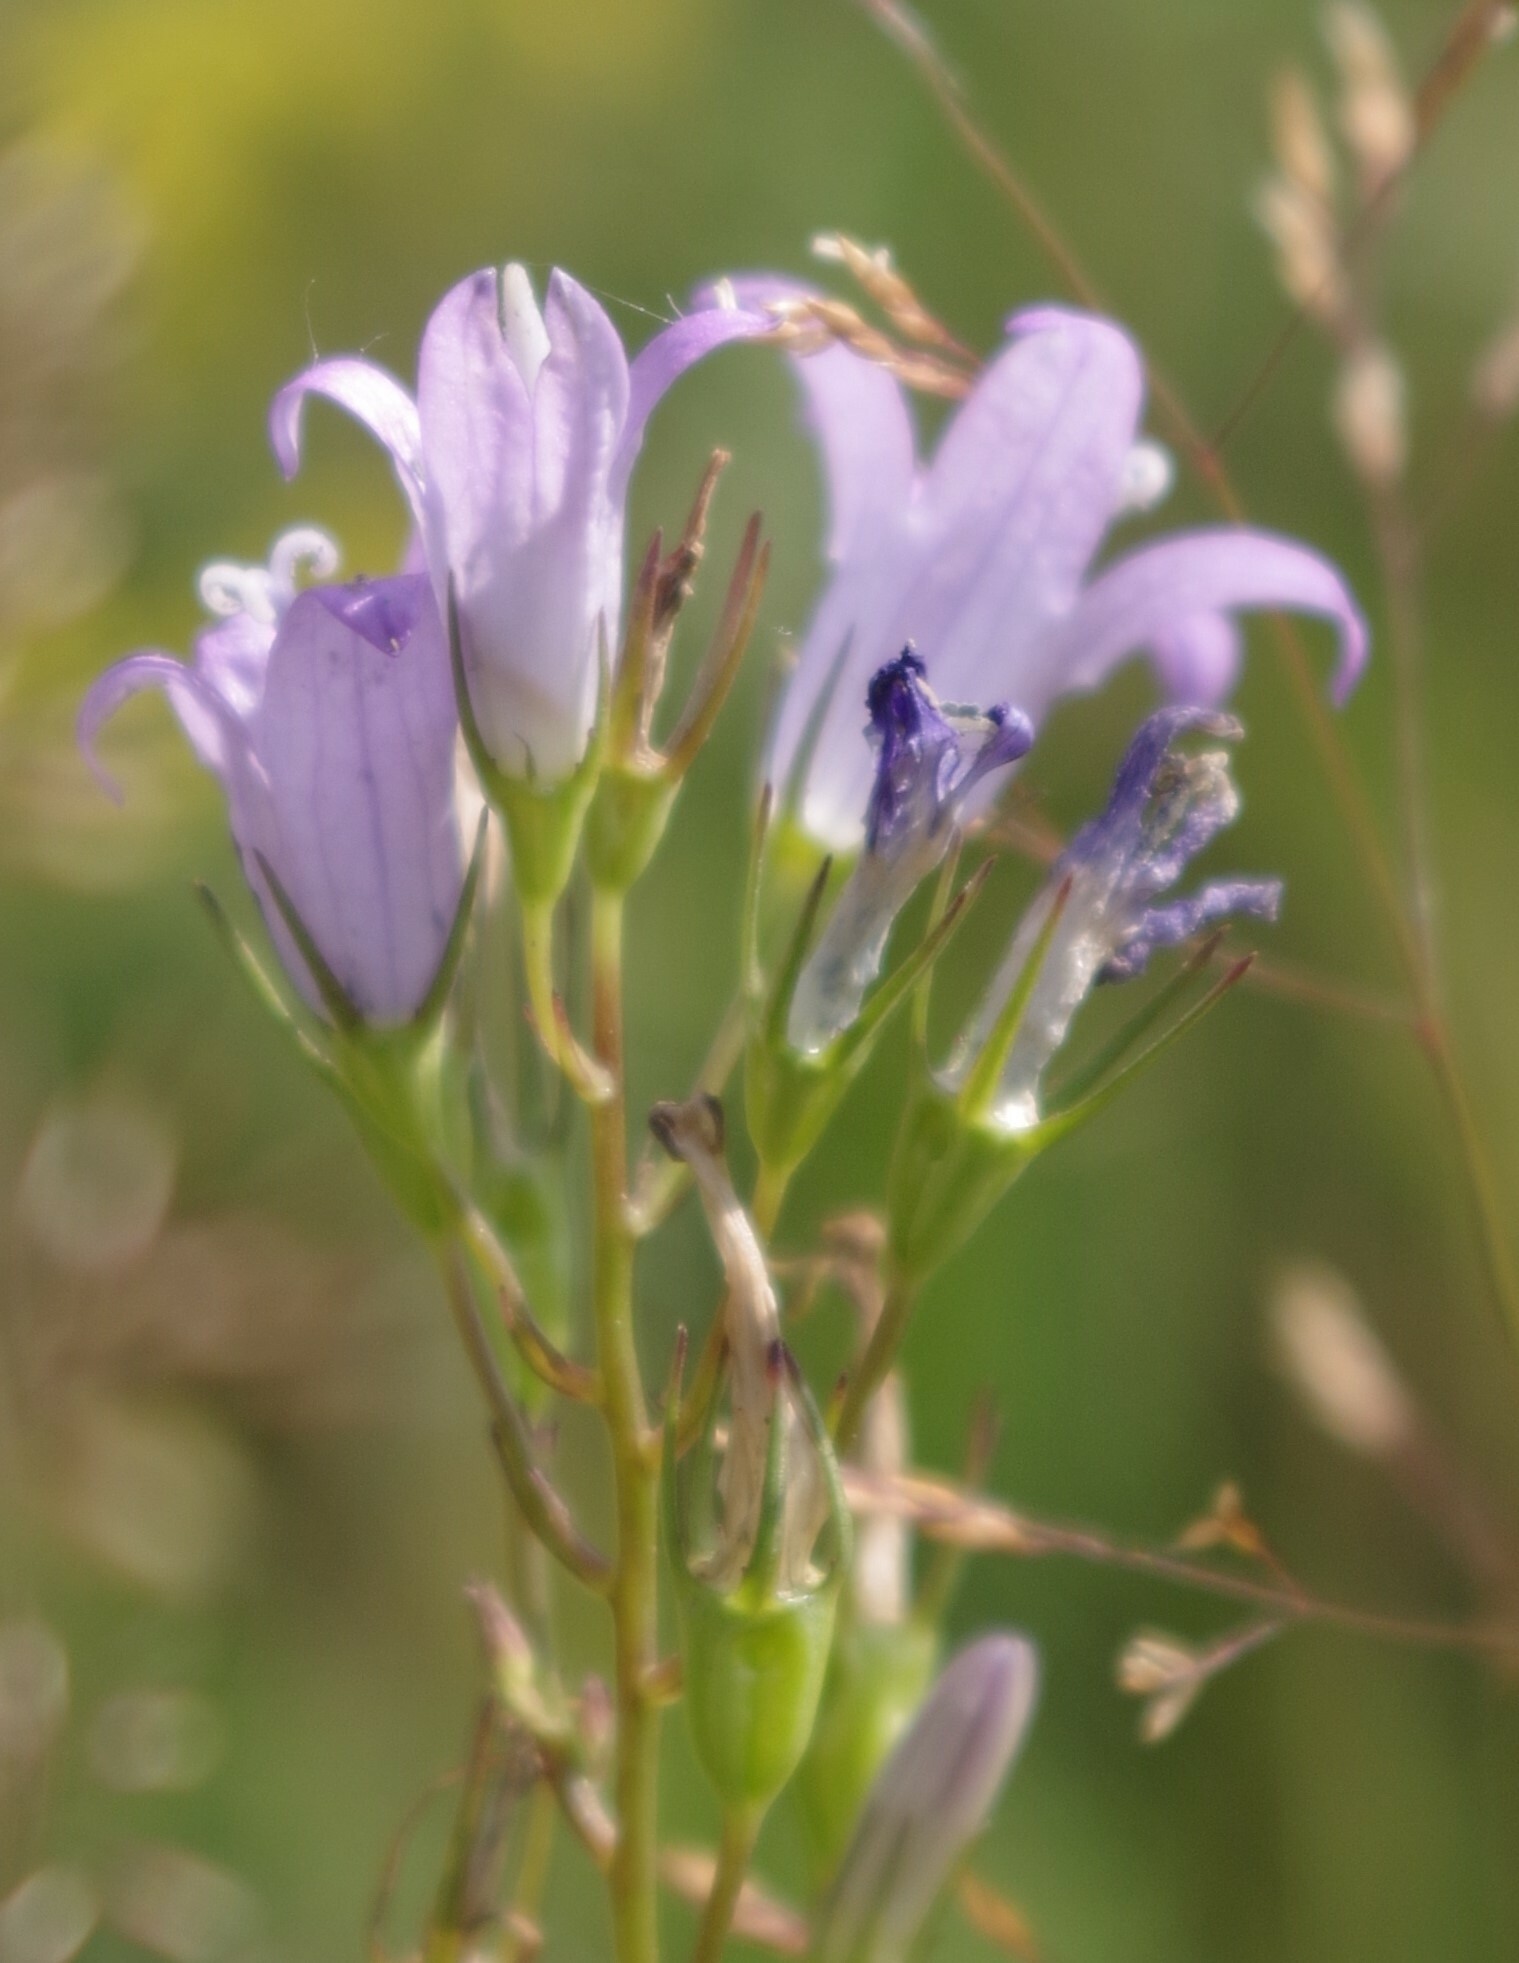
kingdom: Plantae
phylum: Tracheophyta
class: Magnoliopsida
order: Asterales
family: Campanulaceae
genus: Campanula
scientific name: Campanula rapunculus
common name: Rampion bellflower
